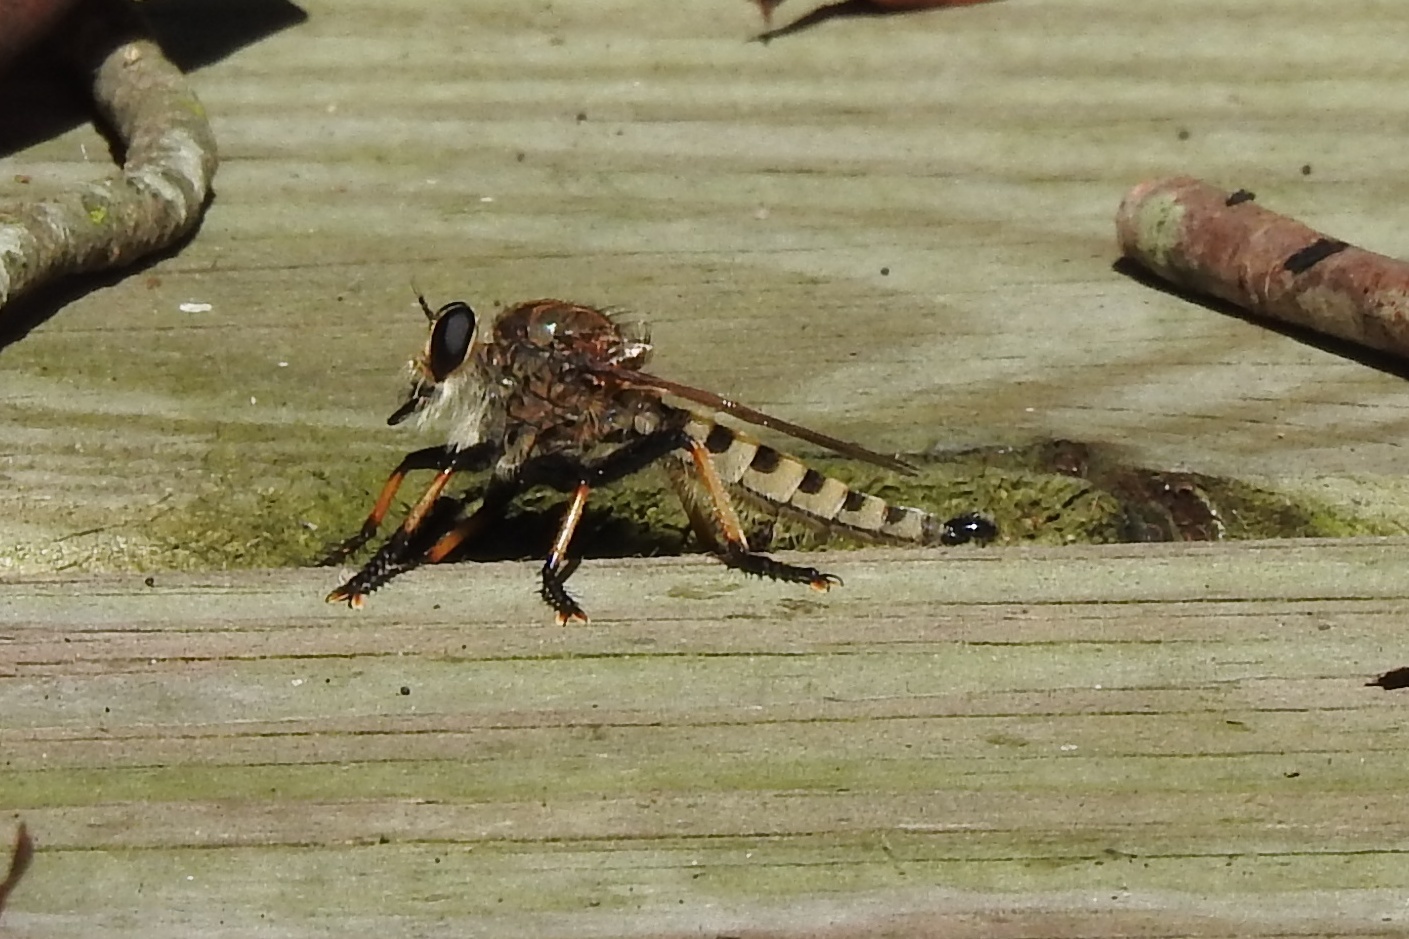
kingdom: Animalia
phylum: Arthropoda
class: Insecta
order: Diptera
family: Asilidae
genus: Promachus
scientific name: Promachus rufipes
